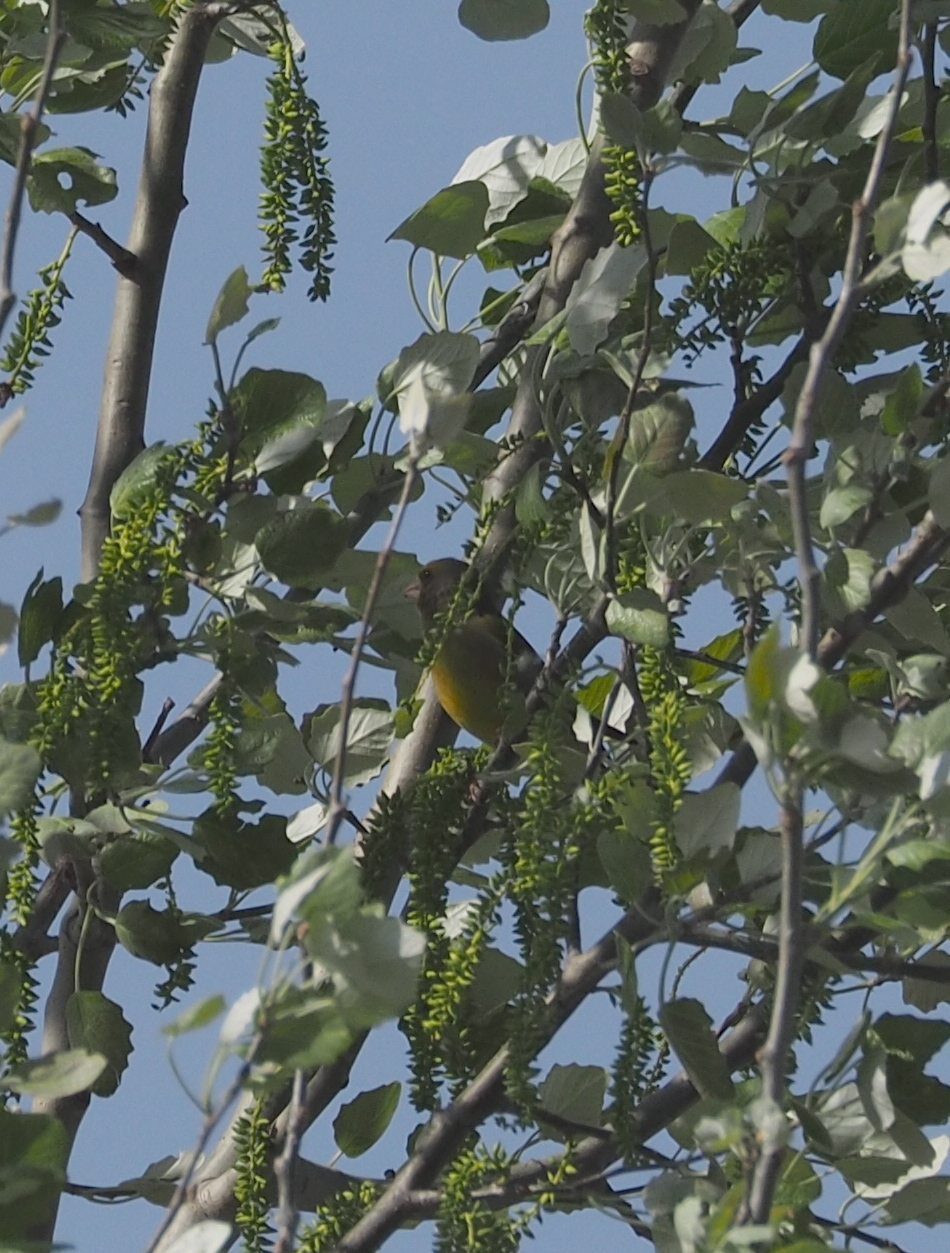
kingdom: Plantae
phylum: Tracheophyta
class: Liliopsida
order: Poales
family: Poaceae
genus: Chloris
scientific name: Chloris chloris
